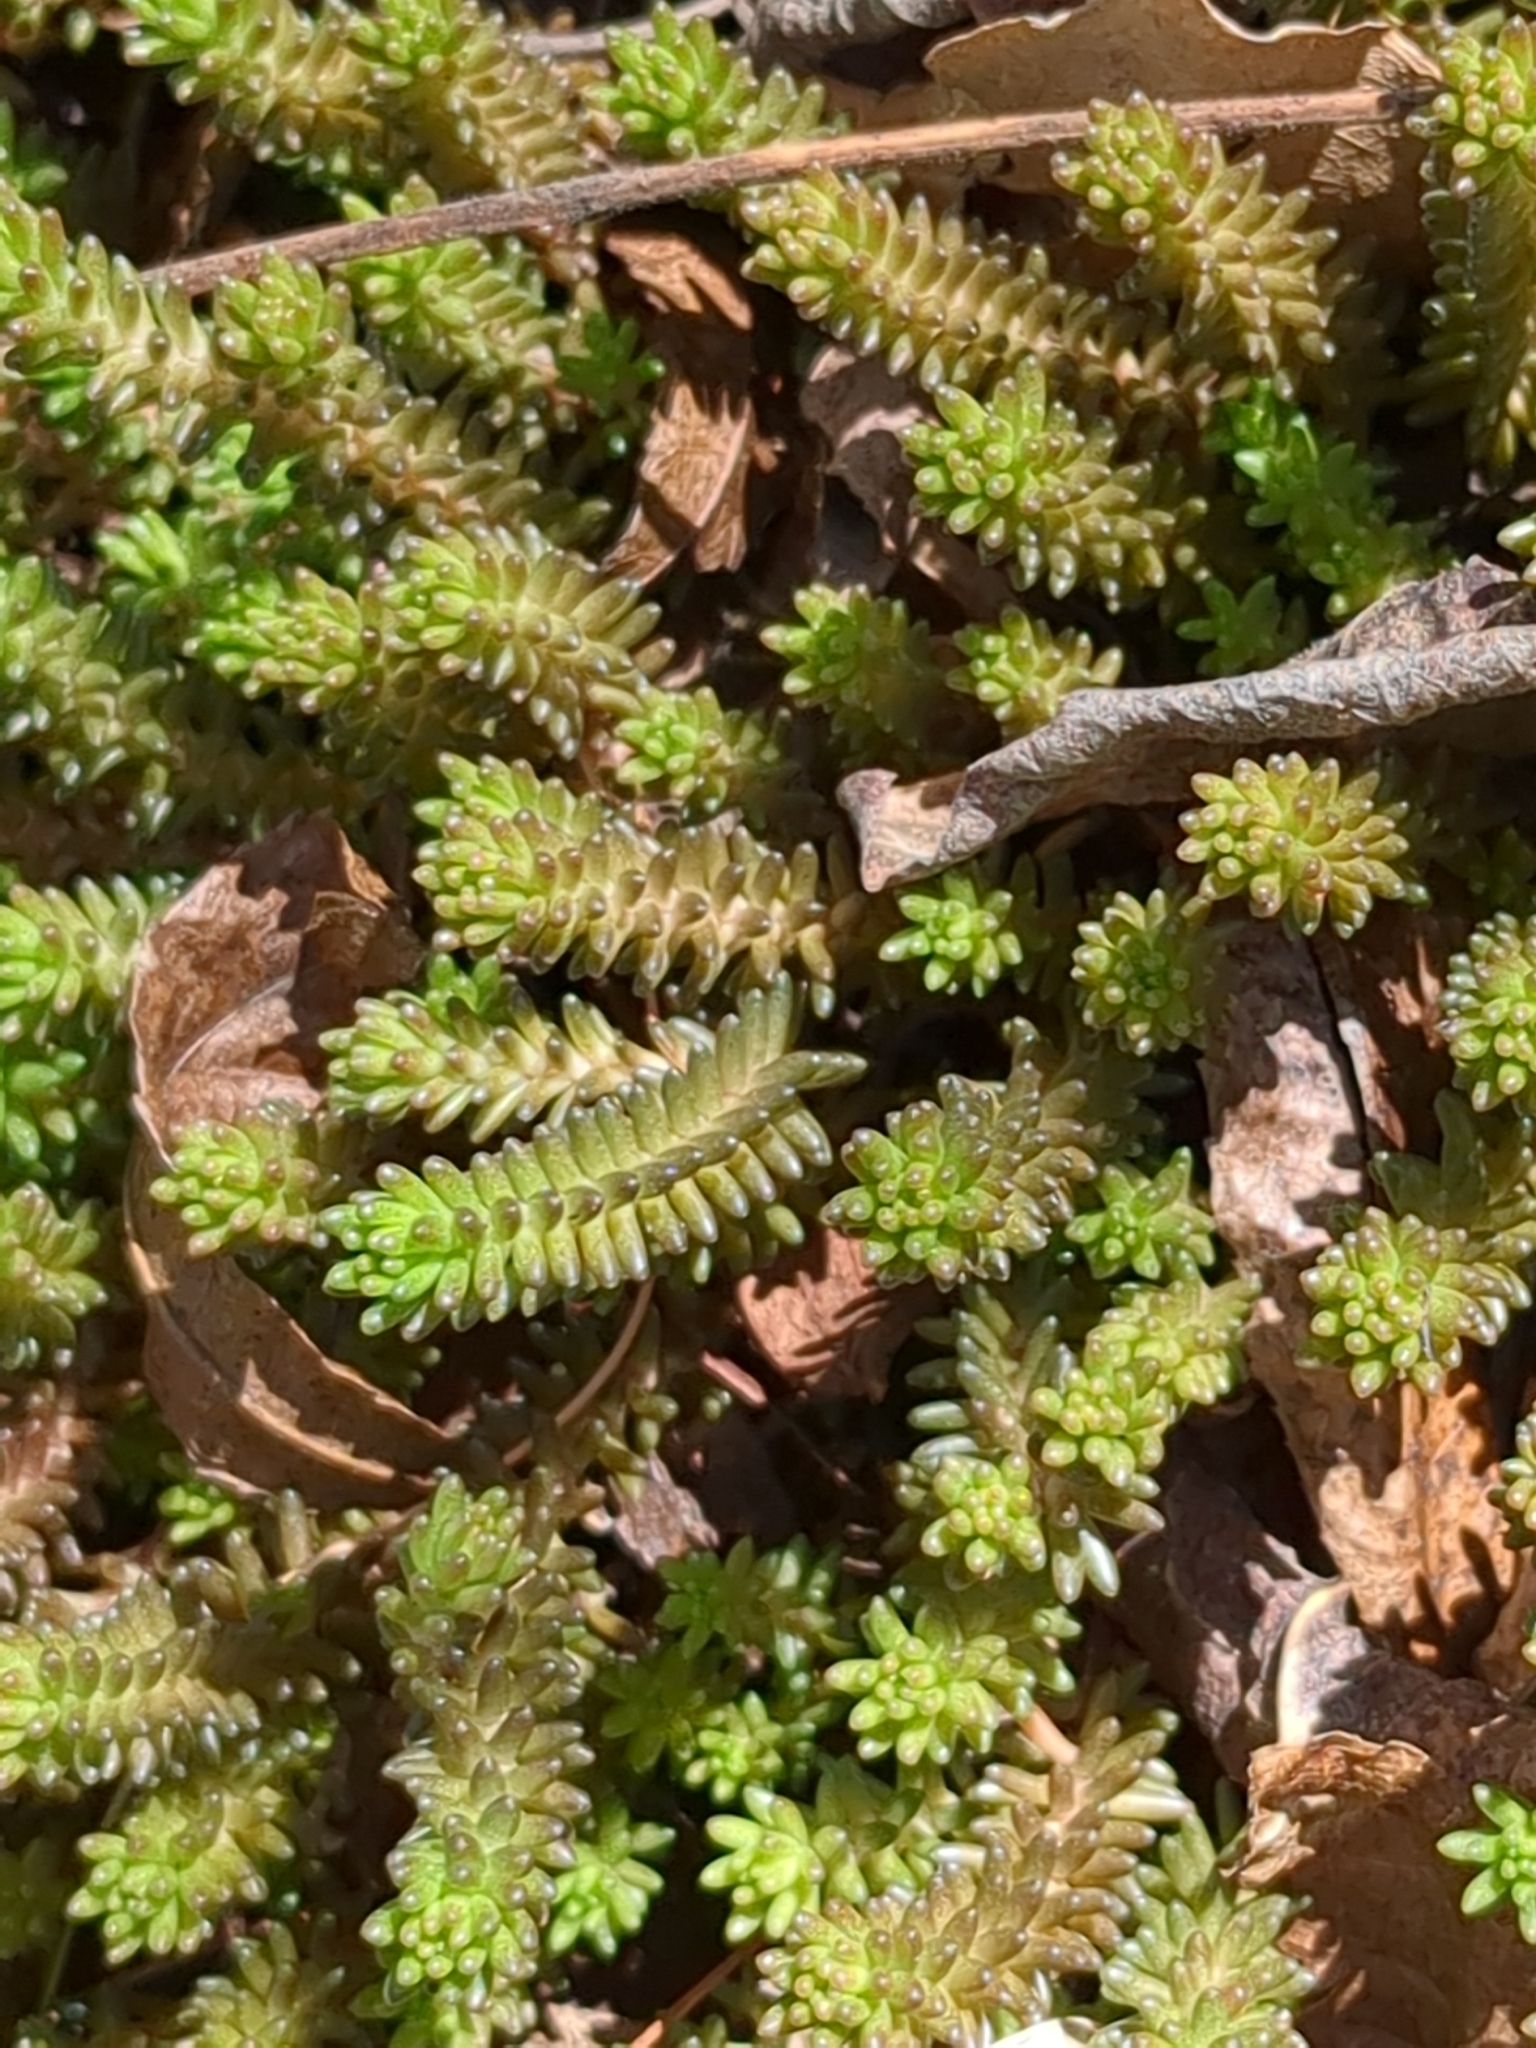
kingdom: Plantae
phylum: Tracheophyta
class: Magnoliopsida
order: Saxifragales
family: Crassulaceae
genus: Sedum
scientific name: Sedum sexangulare
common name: Tasteless stonecrop
